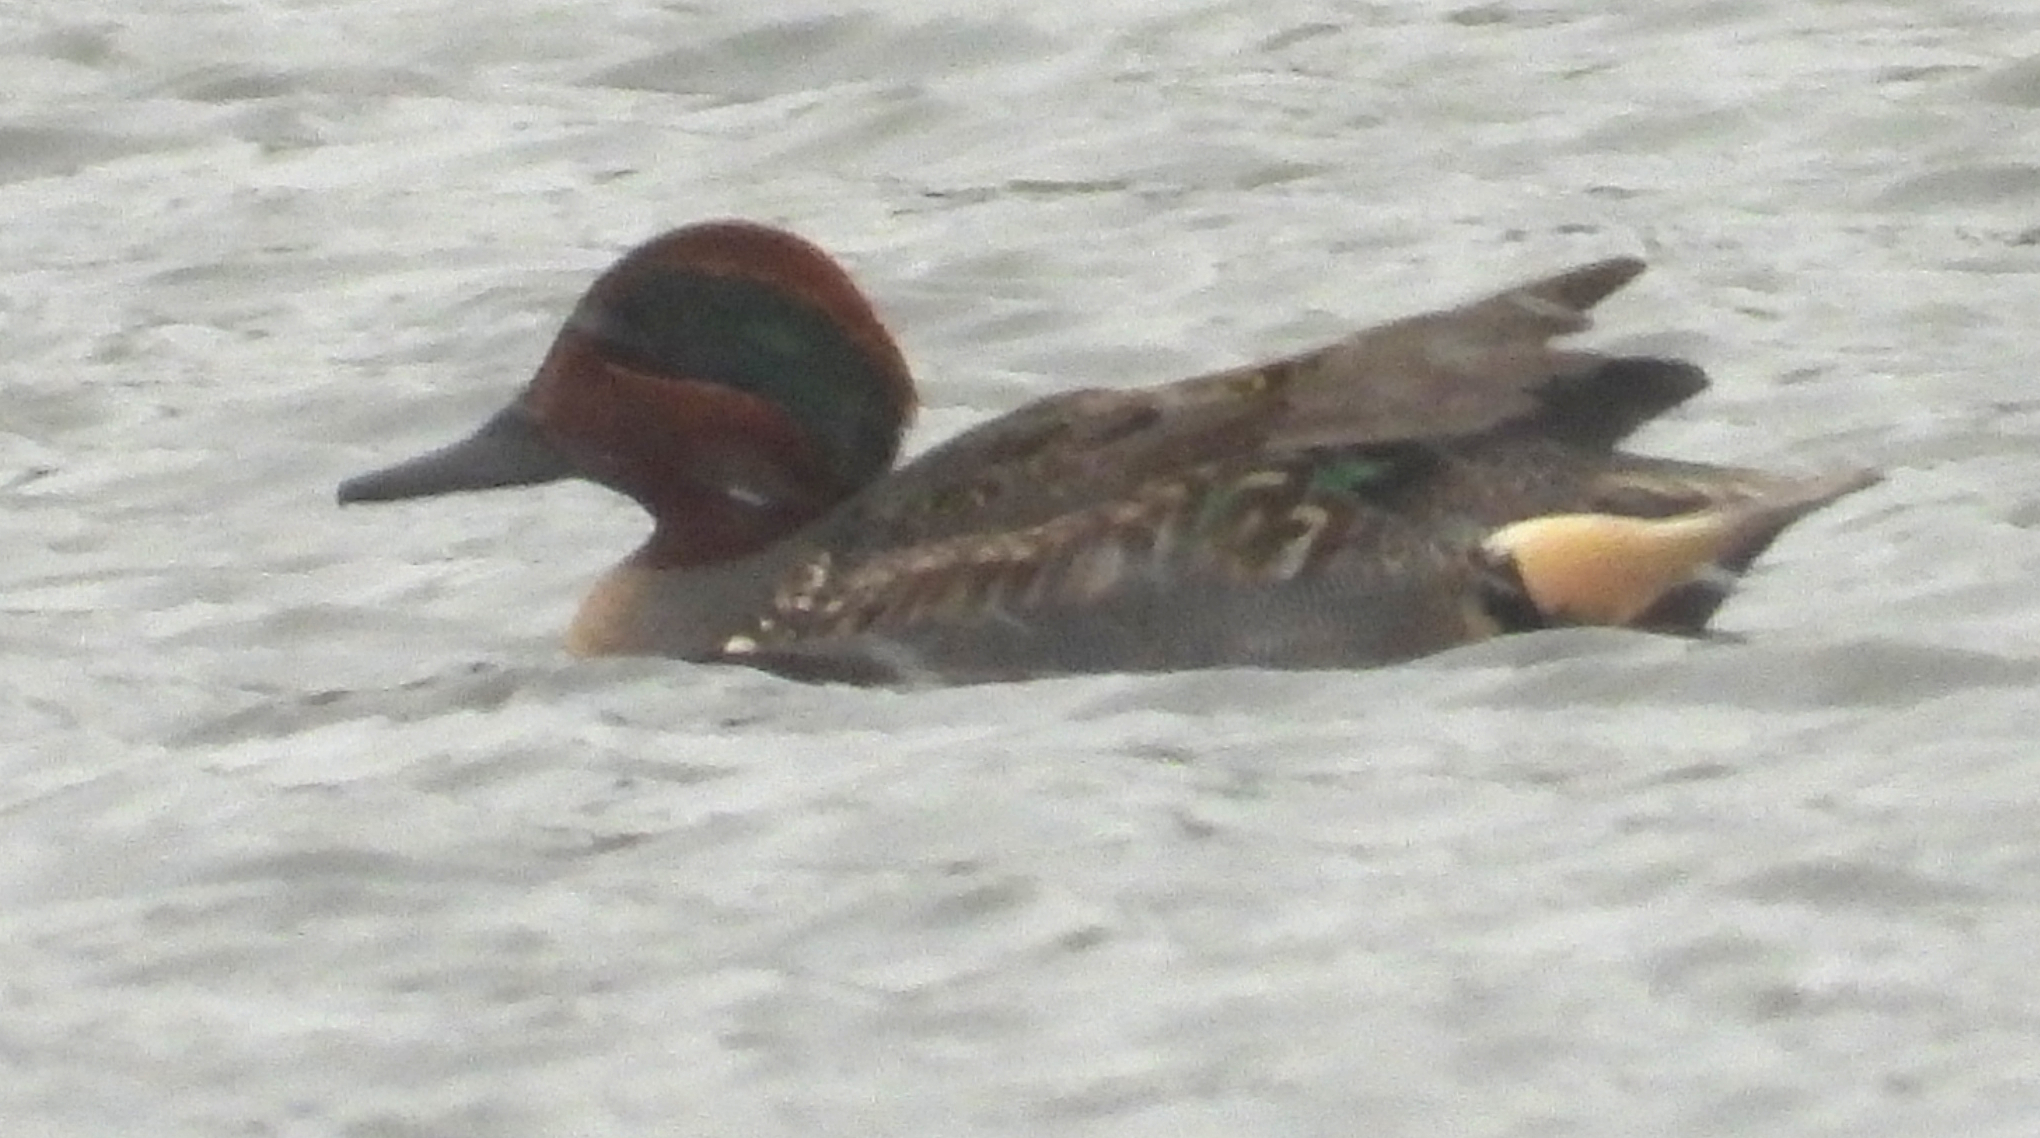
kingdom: Animalia
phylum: Chordata
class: Aves
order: Anseriformes
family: Anatidae
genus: Anas
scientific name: Anas crecca
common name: Eurasian teal
